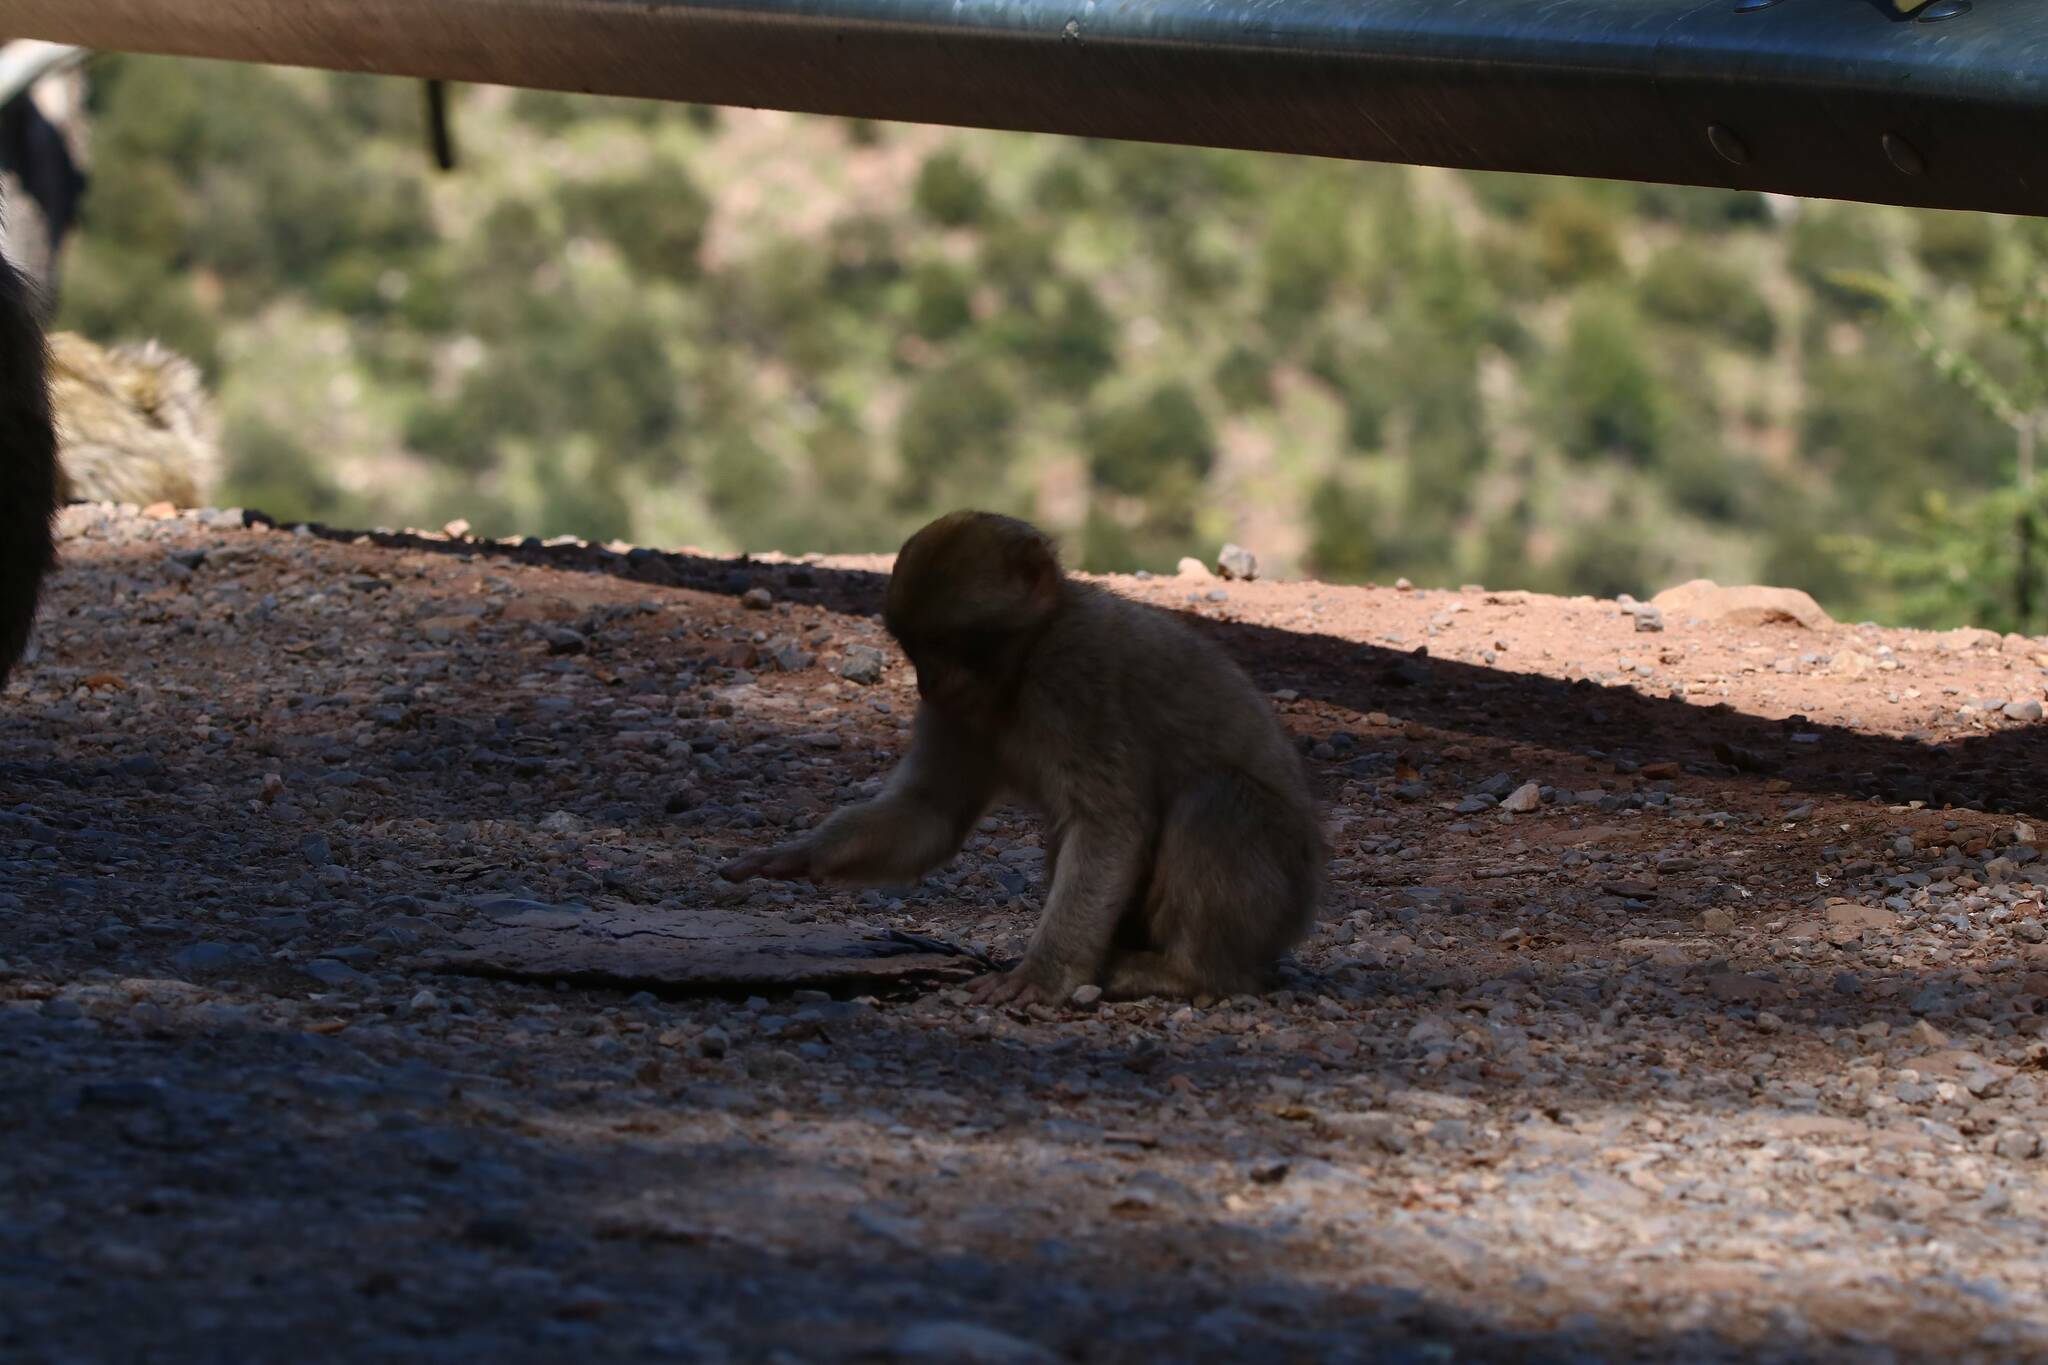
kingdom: Animalia
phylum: Chordata
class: Mammalia
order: Primates
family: Cercopithecidae
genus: Macaca
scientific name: Macaca sylvanus
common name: Barbary macaque
